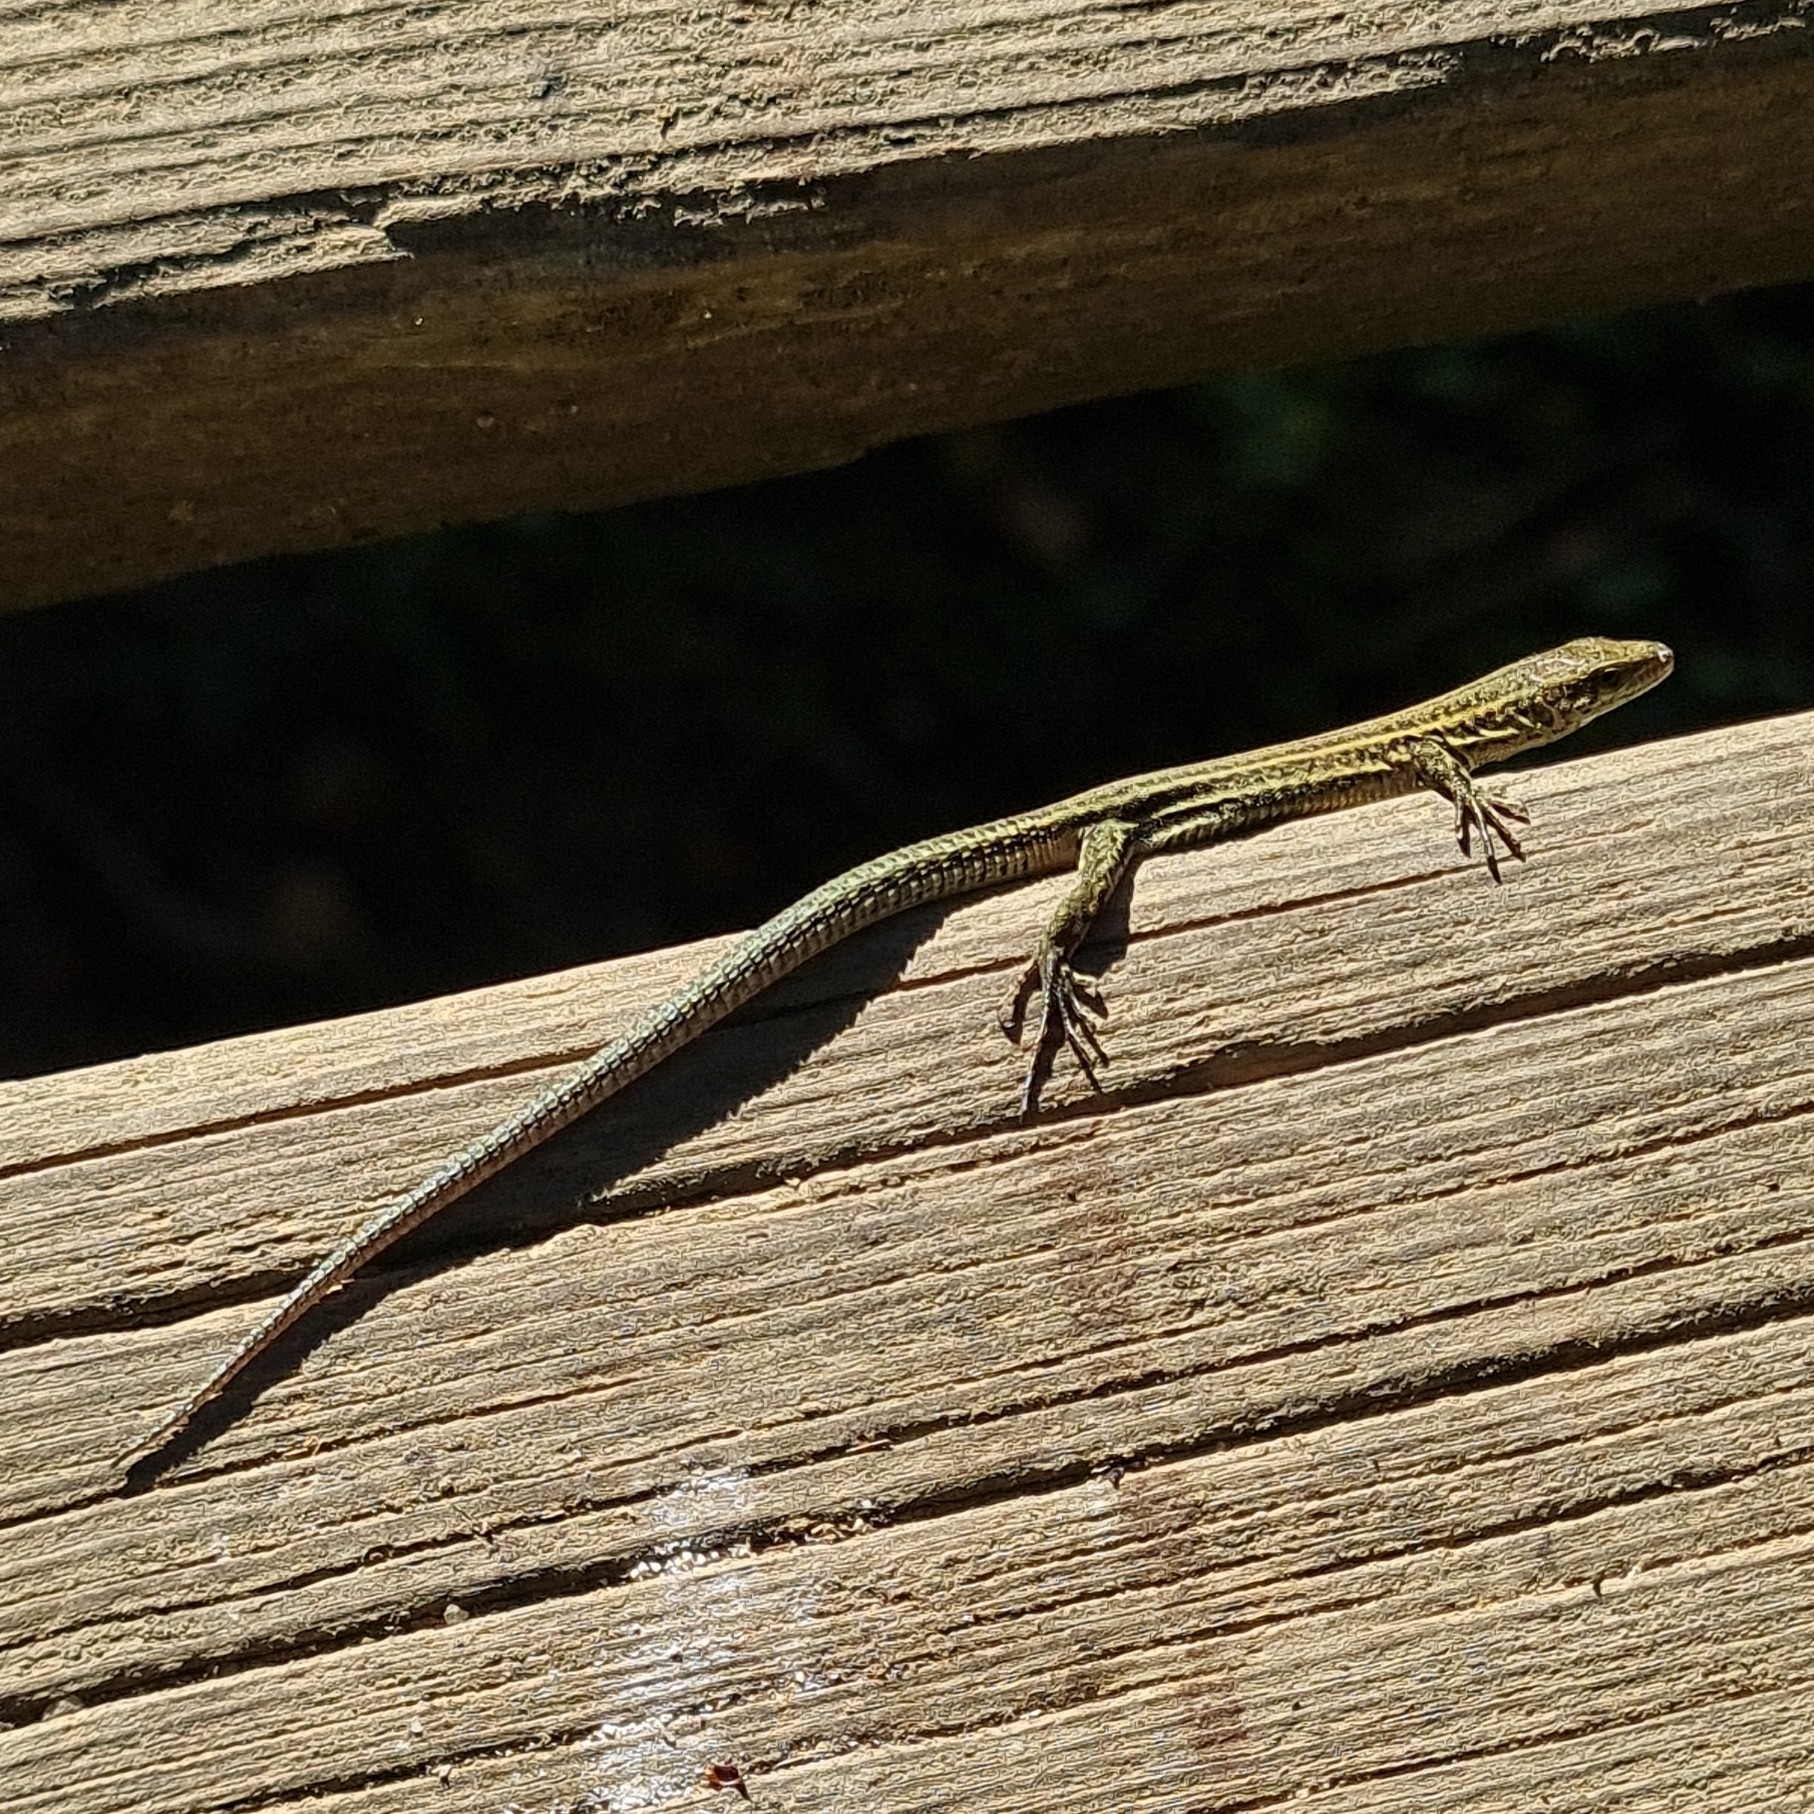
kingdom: Animalia
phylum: Chordata
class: Squamata
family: Lacertidae
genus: Podarcis
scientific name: Podarcis liolepis
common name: Catalonian wall lizard
